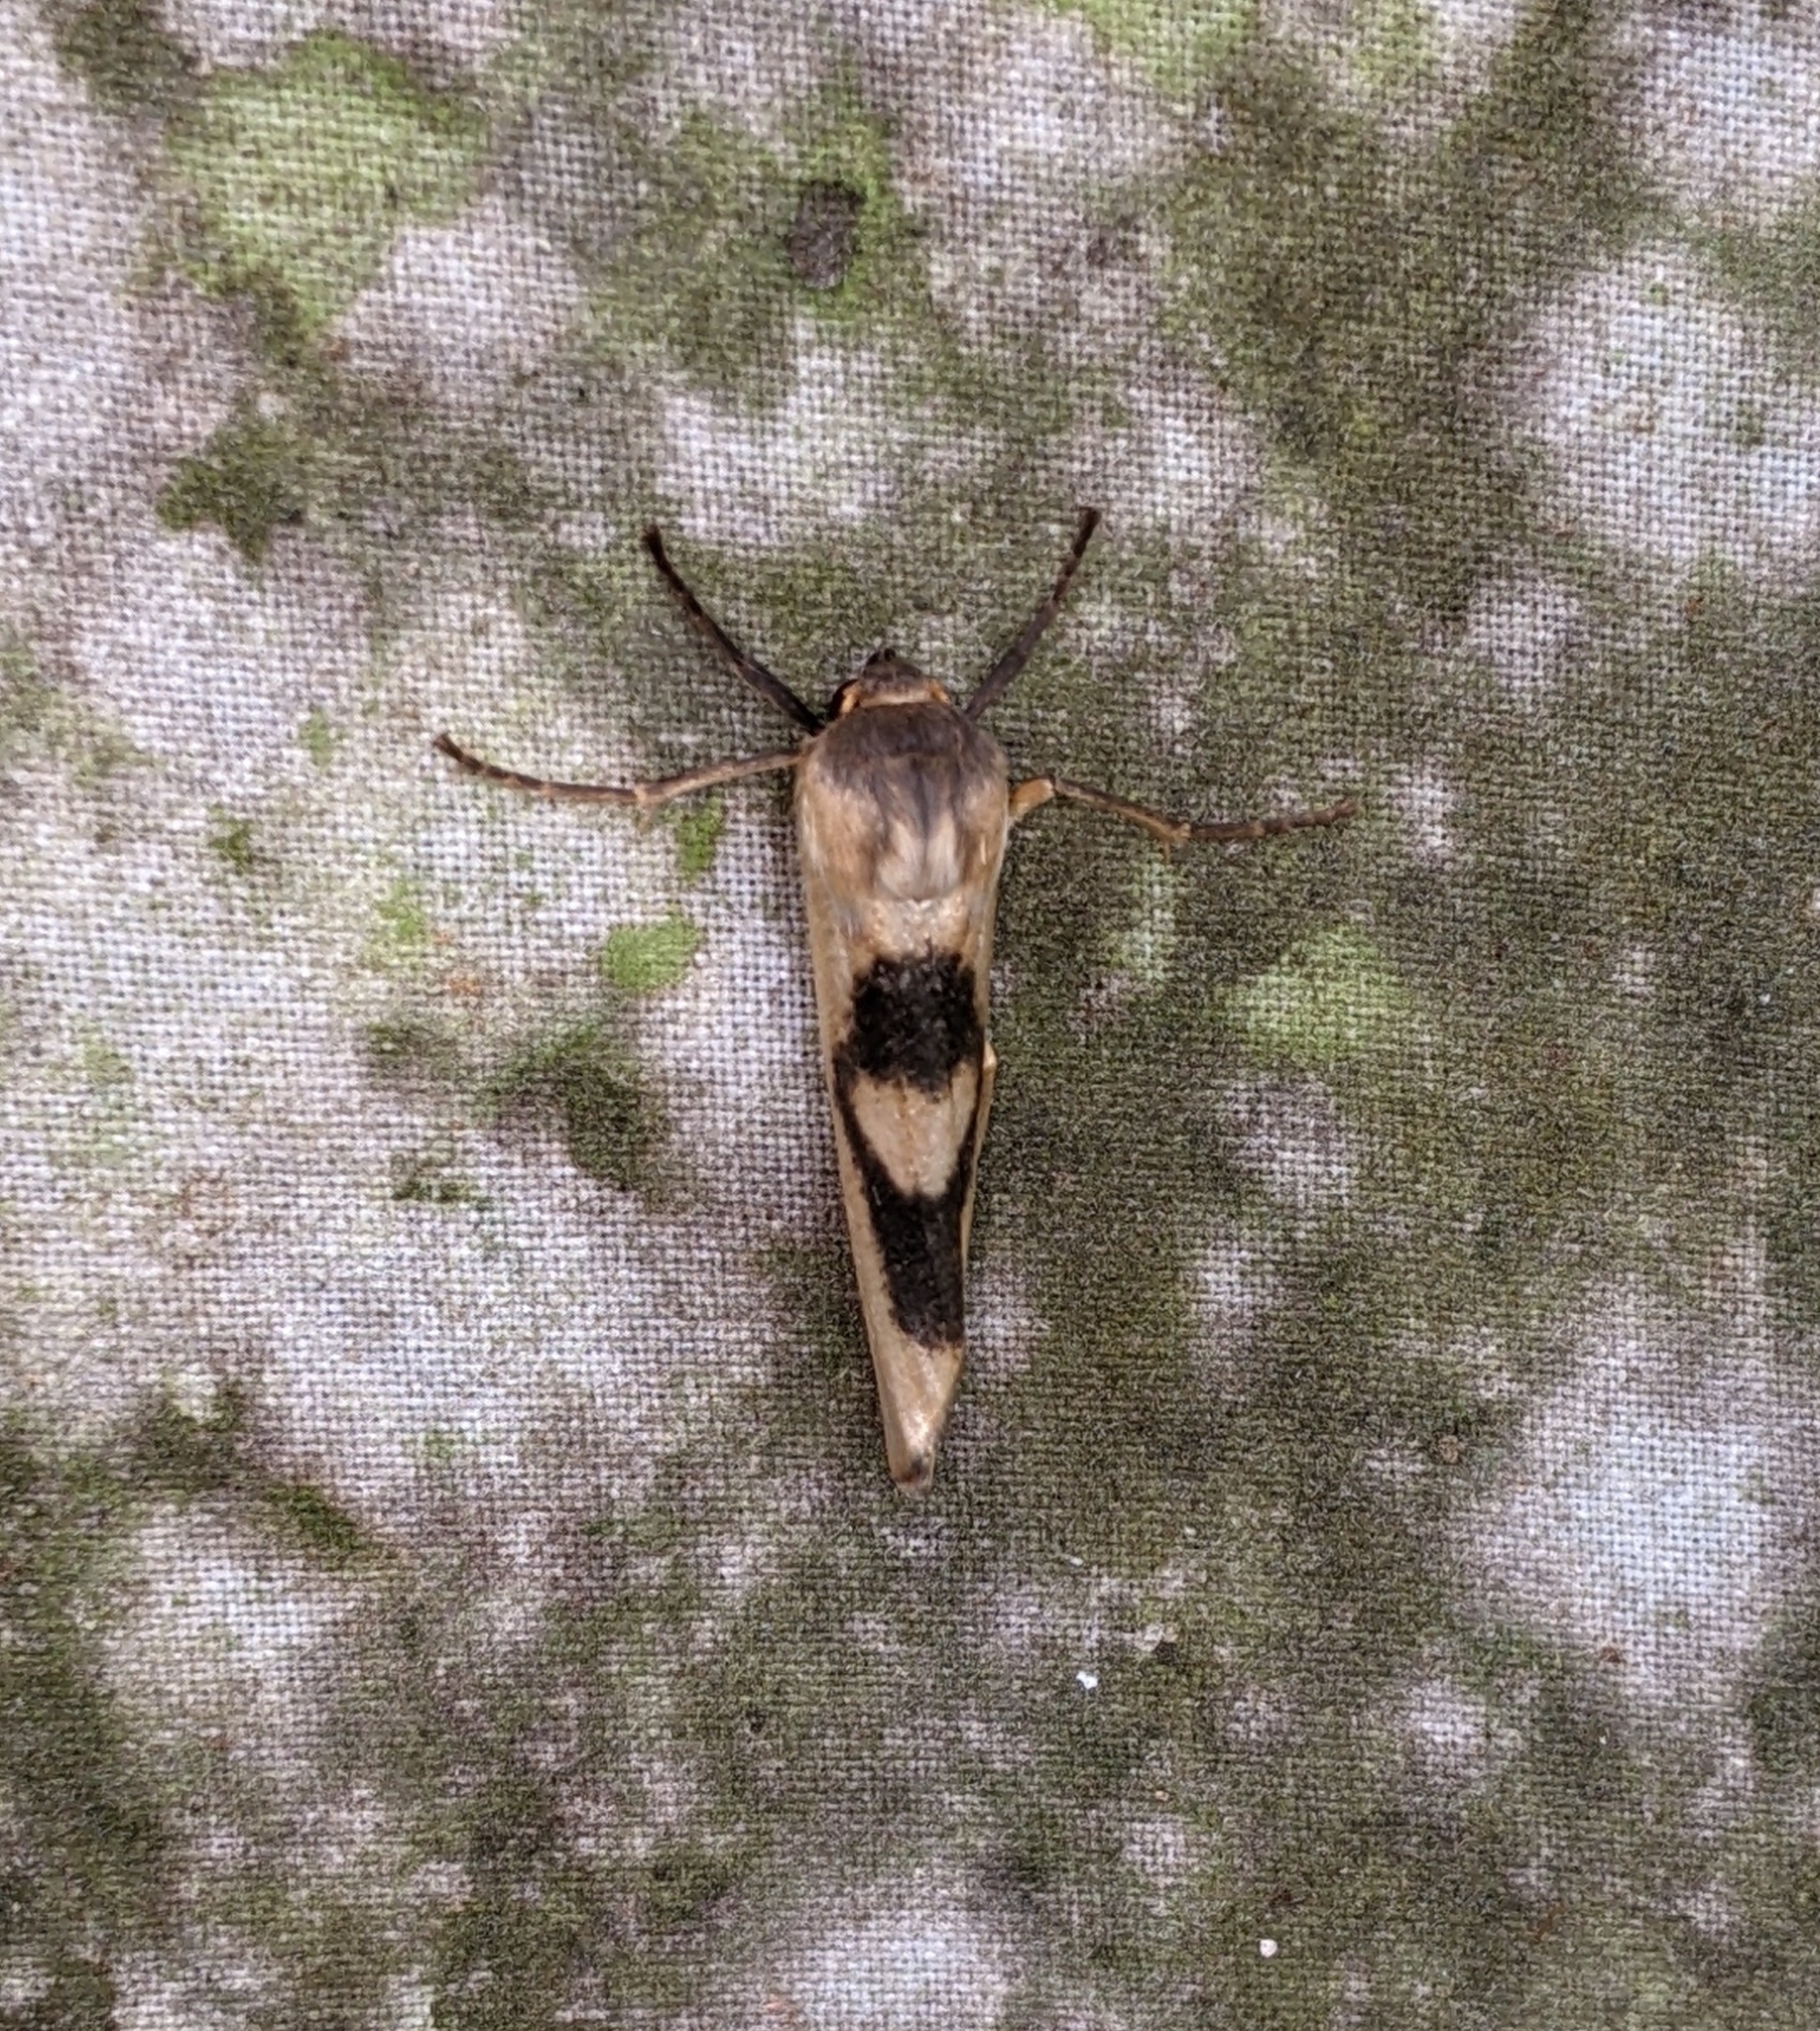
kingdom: Animalia
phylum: Arthropoda
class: Insecta
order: Lepidoptera
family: Erebidae
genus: Agylla
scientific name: Agylla nitidalis
